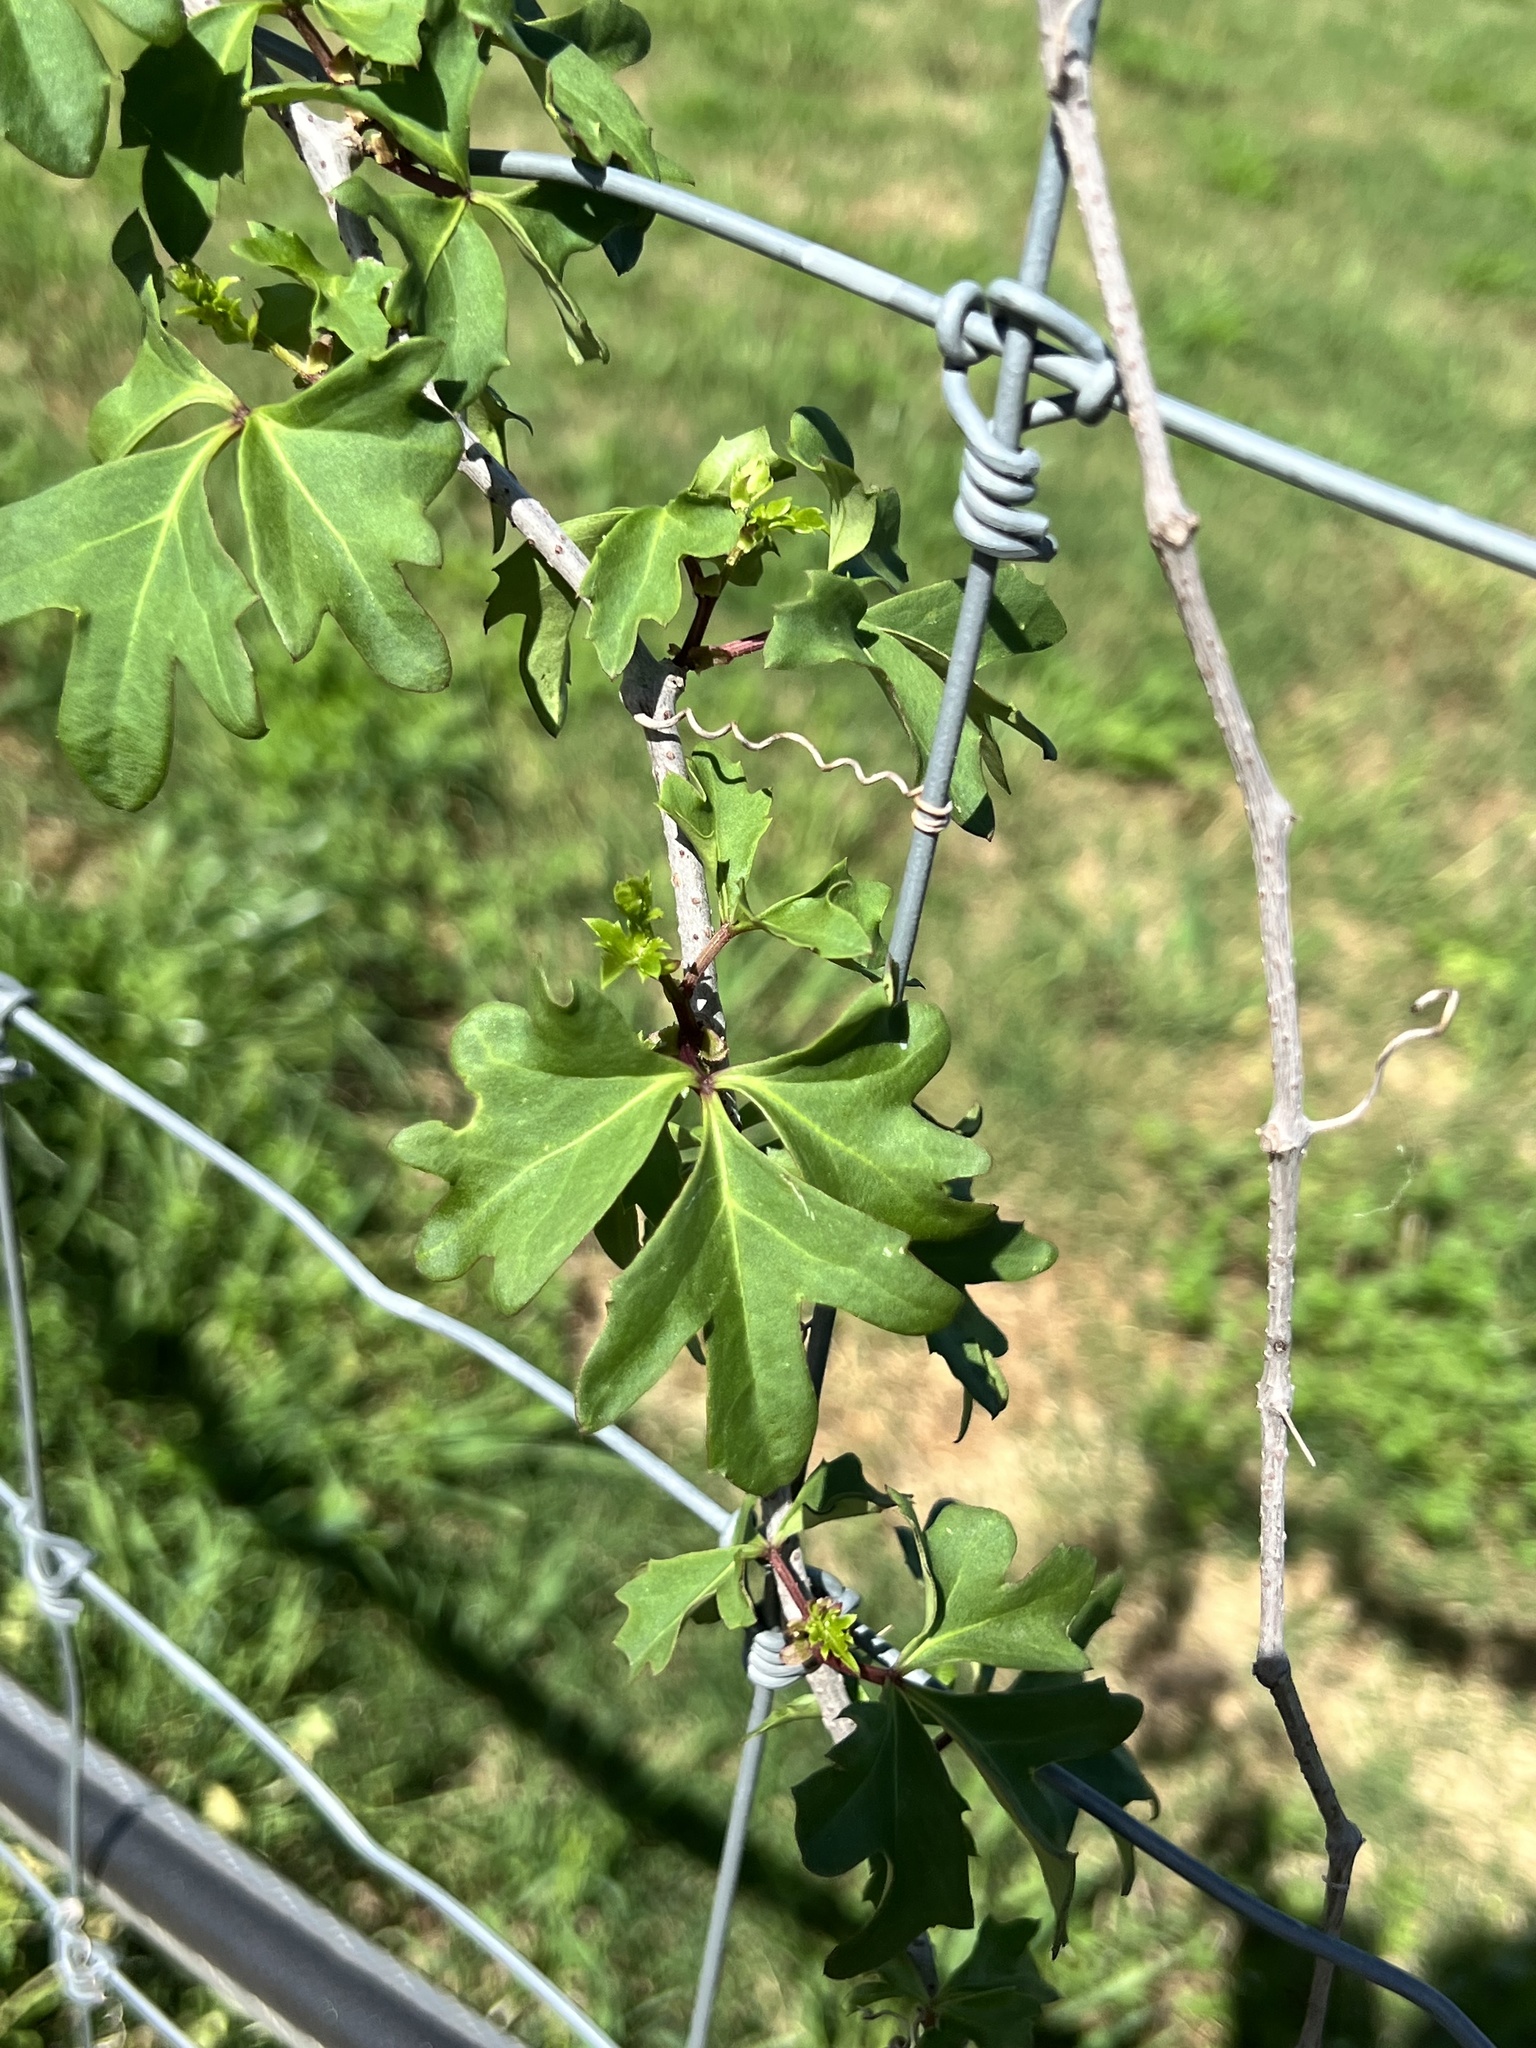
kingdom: Plantae
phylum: Tracheophyta
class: Magnoliopsida
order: Vitales
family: Vitaceae
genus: Cissus
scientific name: Cissus trifoliata
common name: Vine-sorrel
